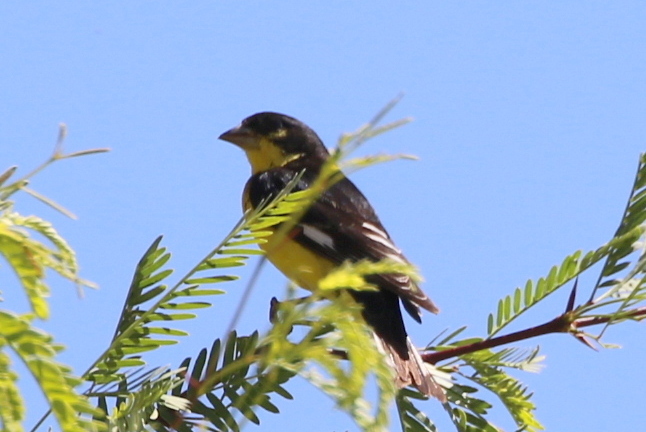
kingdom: Animalia
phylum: Chordata
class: Aves
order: Passeriformes
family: Fringillidae
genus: Spinus
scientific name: Spinus psaltria
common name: Lesser goldfinch
